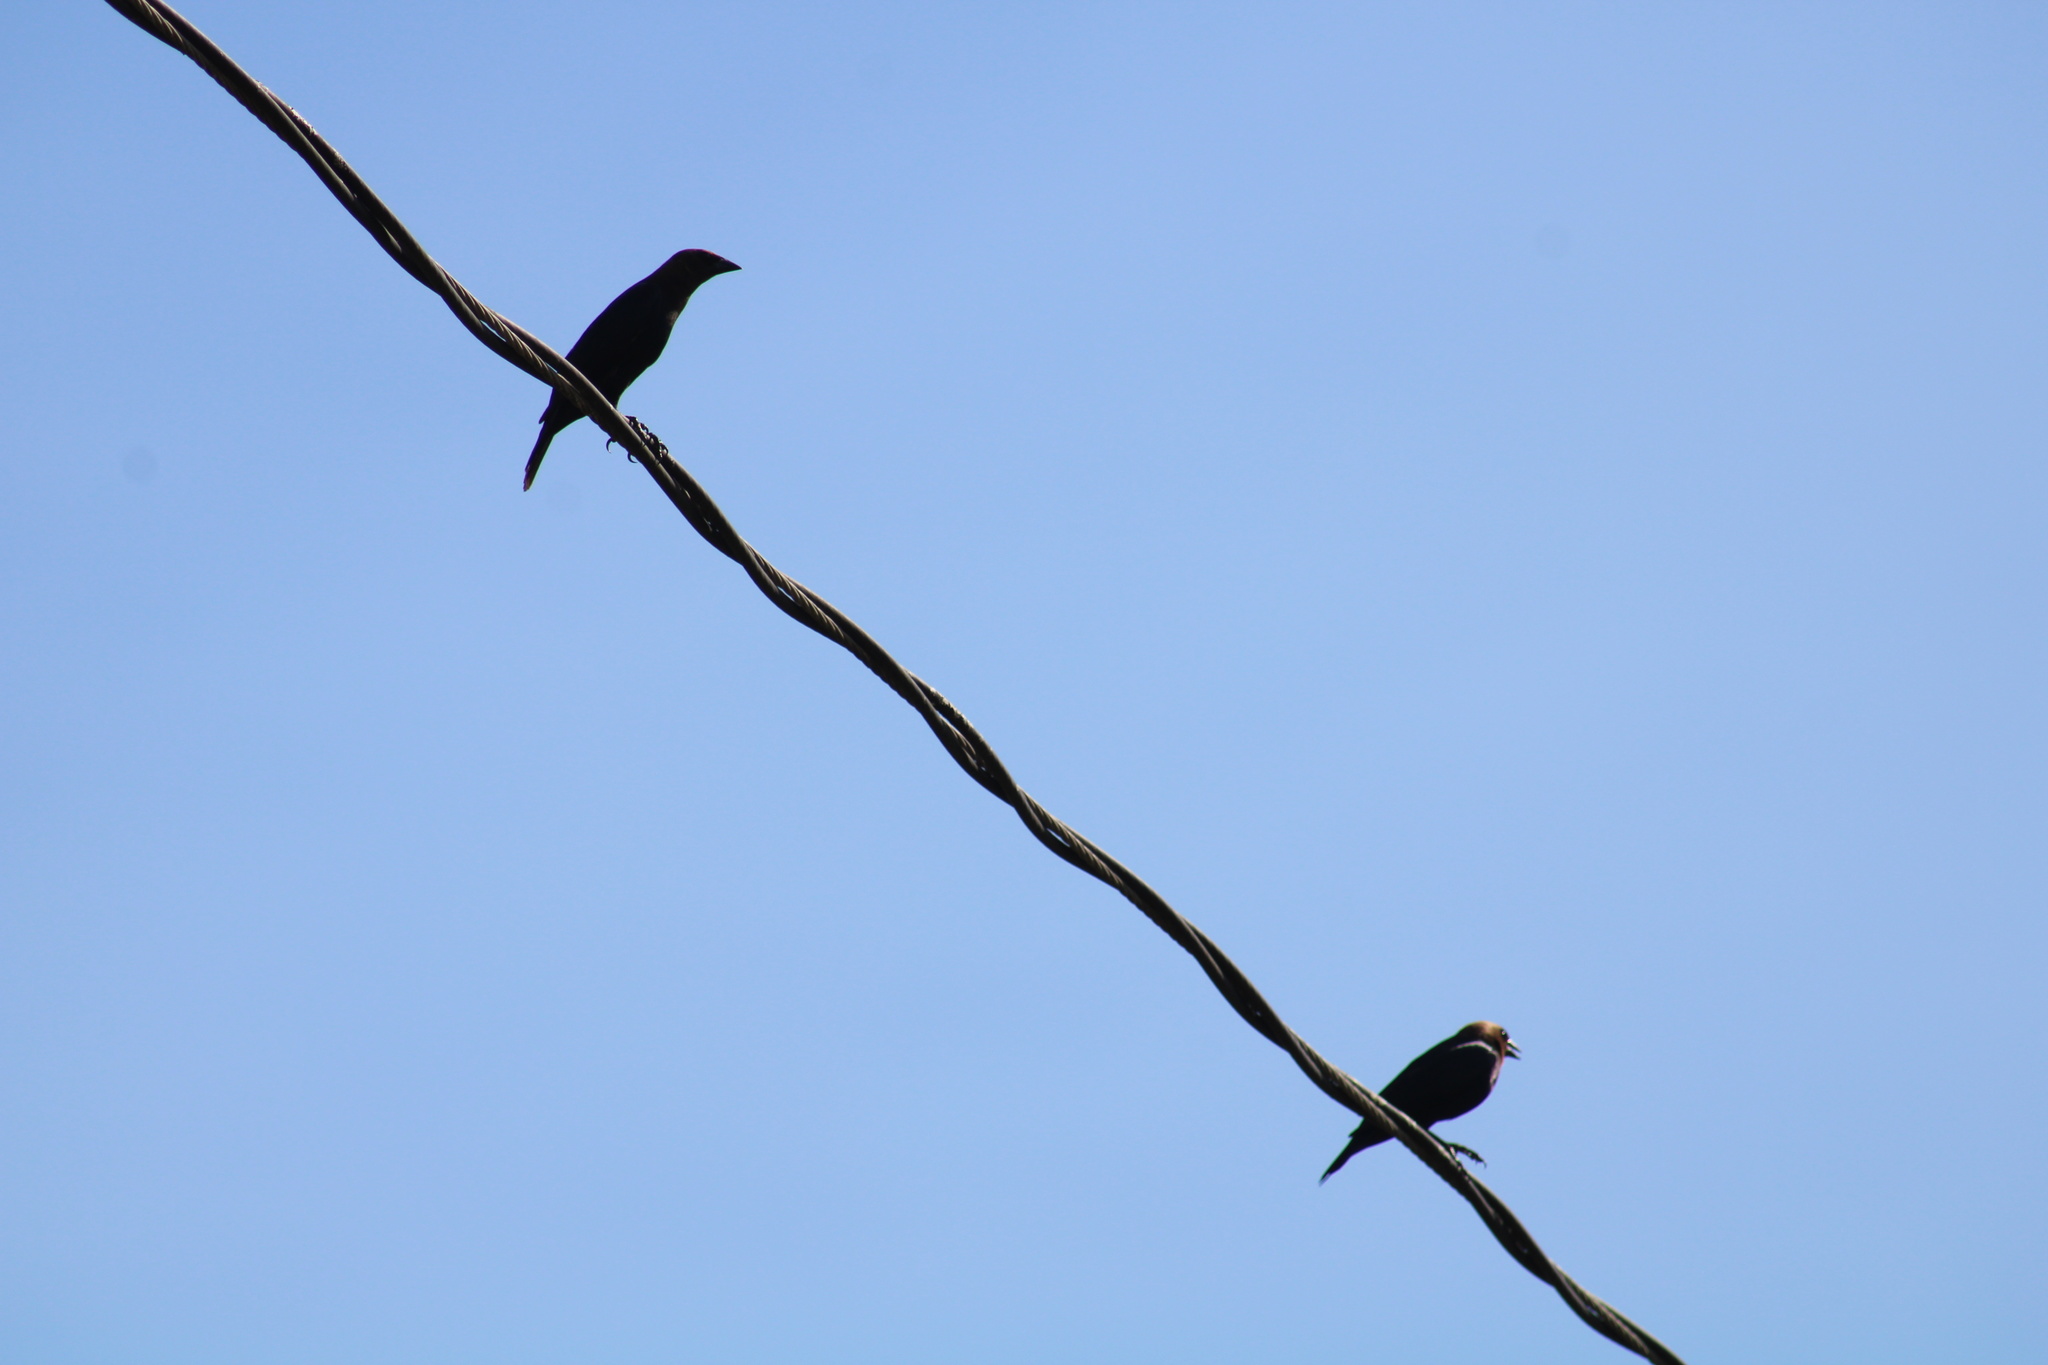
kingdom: Animalia
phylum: Chordata
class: Aves
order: Passeriformes
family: Icteridae
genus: Molothrus
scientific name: Molothrus ater
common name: Brown-headed cowbird
